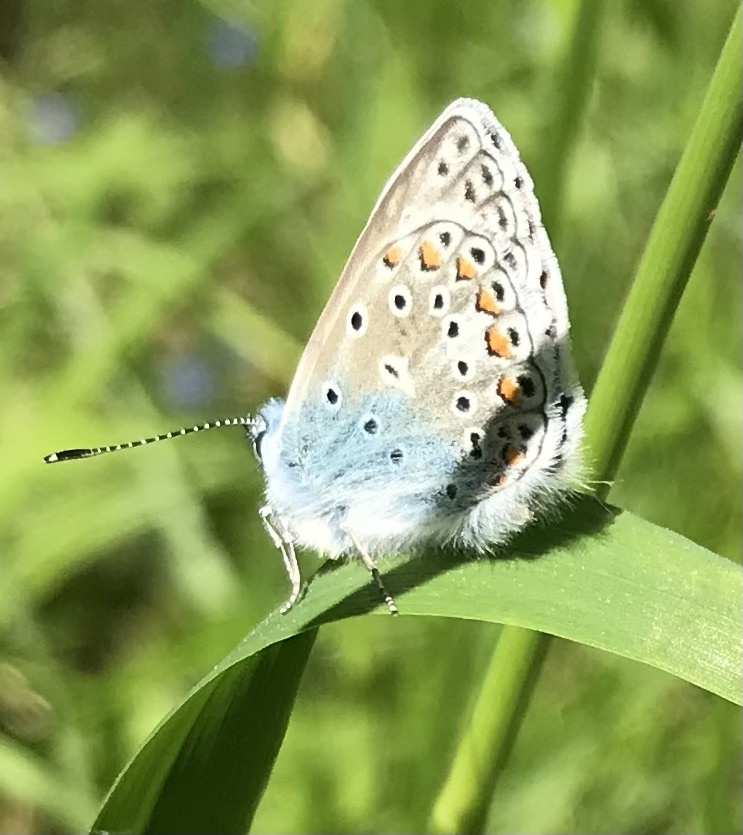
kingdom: Animalia
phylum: Arthropoda
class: Insecta
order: Lepidoptera
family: Lycaenidae
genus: Polyommatus
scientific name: Polyommatus icarus
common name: Common blue
